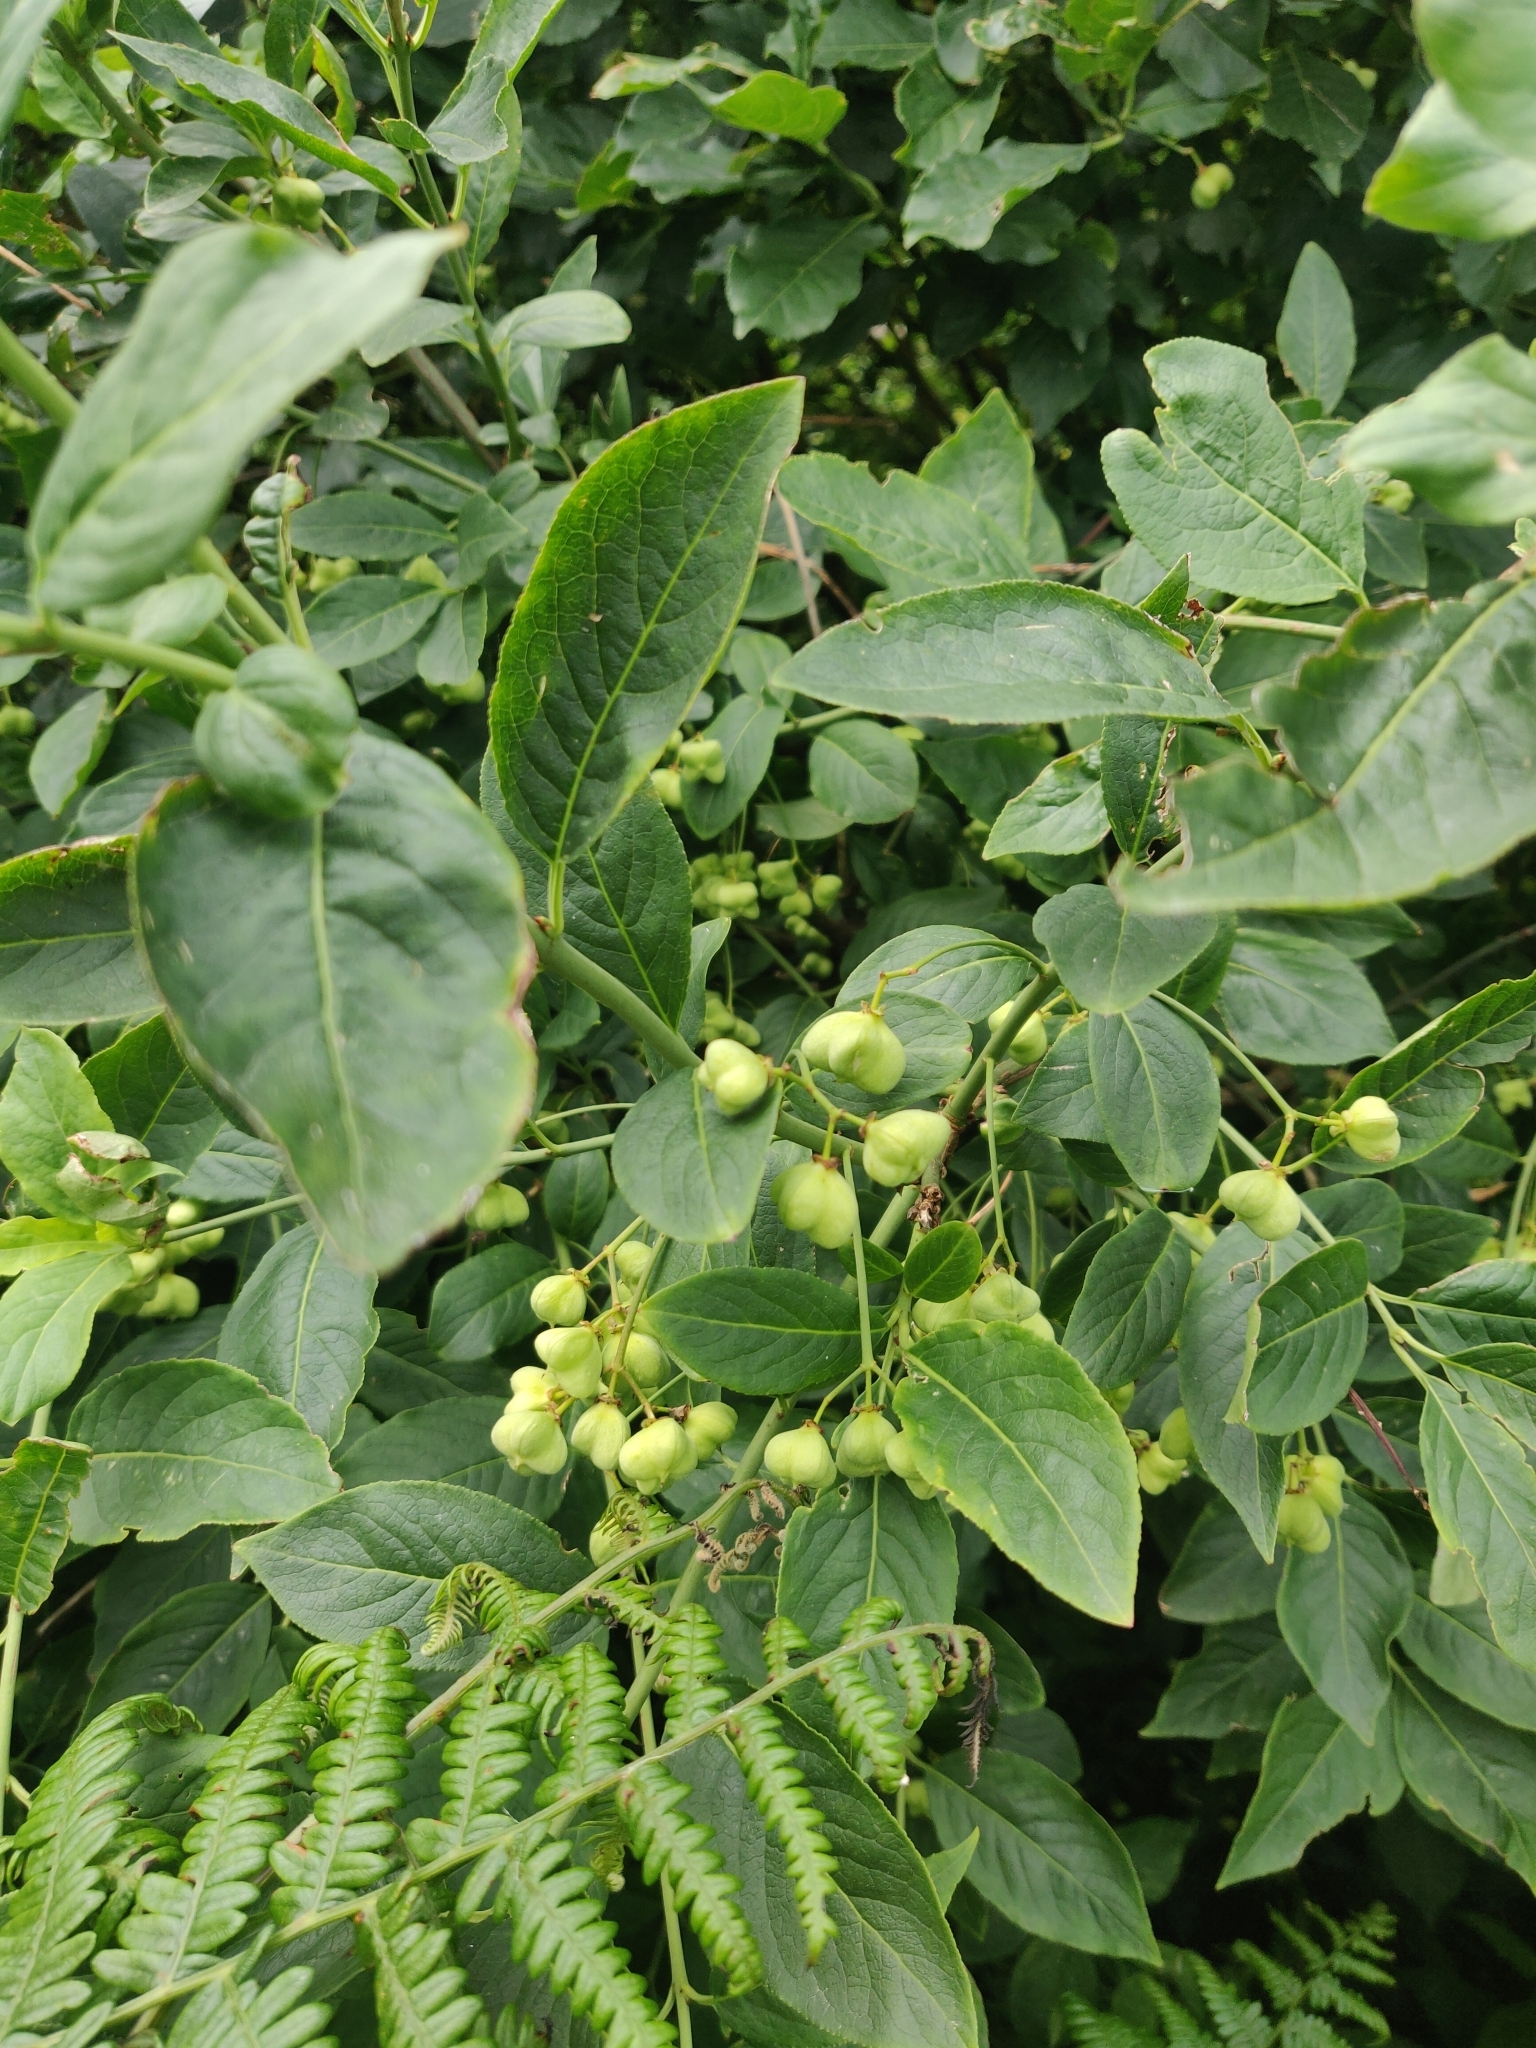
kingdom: Plantae
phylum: Tracheophyta
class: Magnoliopsida
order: Celastrales
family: Celastraceae
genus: Euonymus
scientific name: Euonymus europaeus
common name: Spindle
